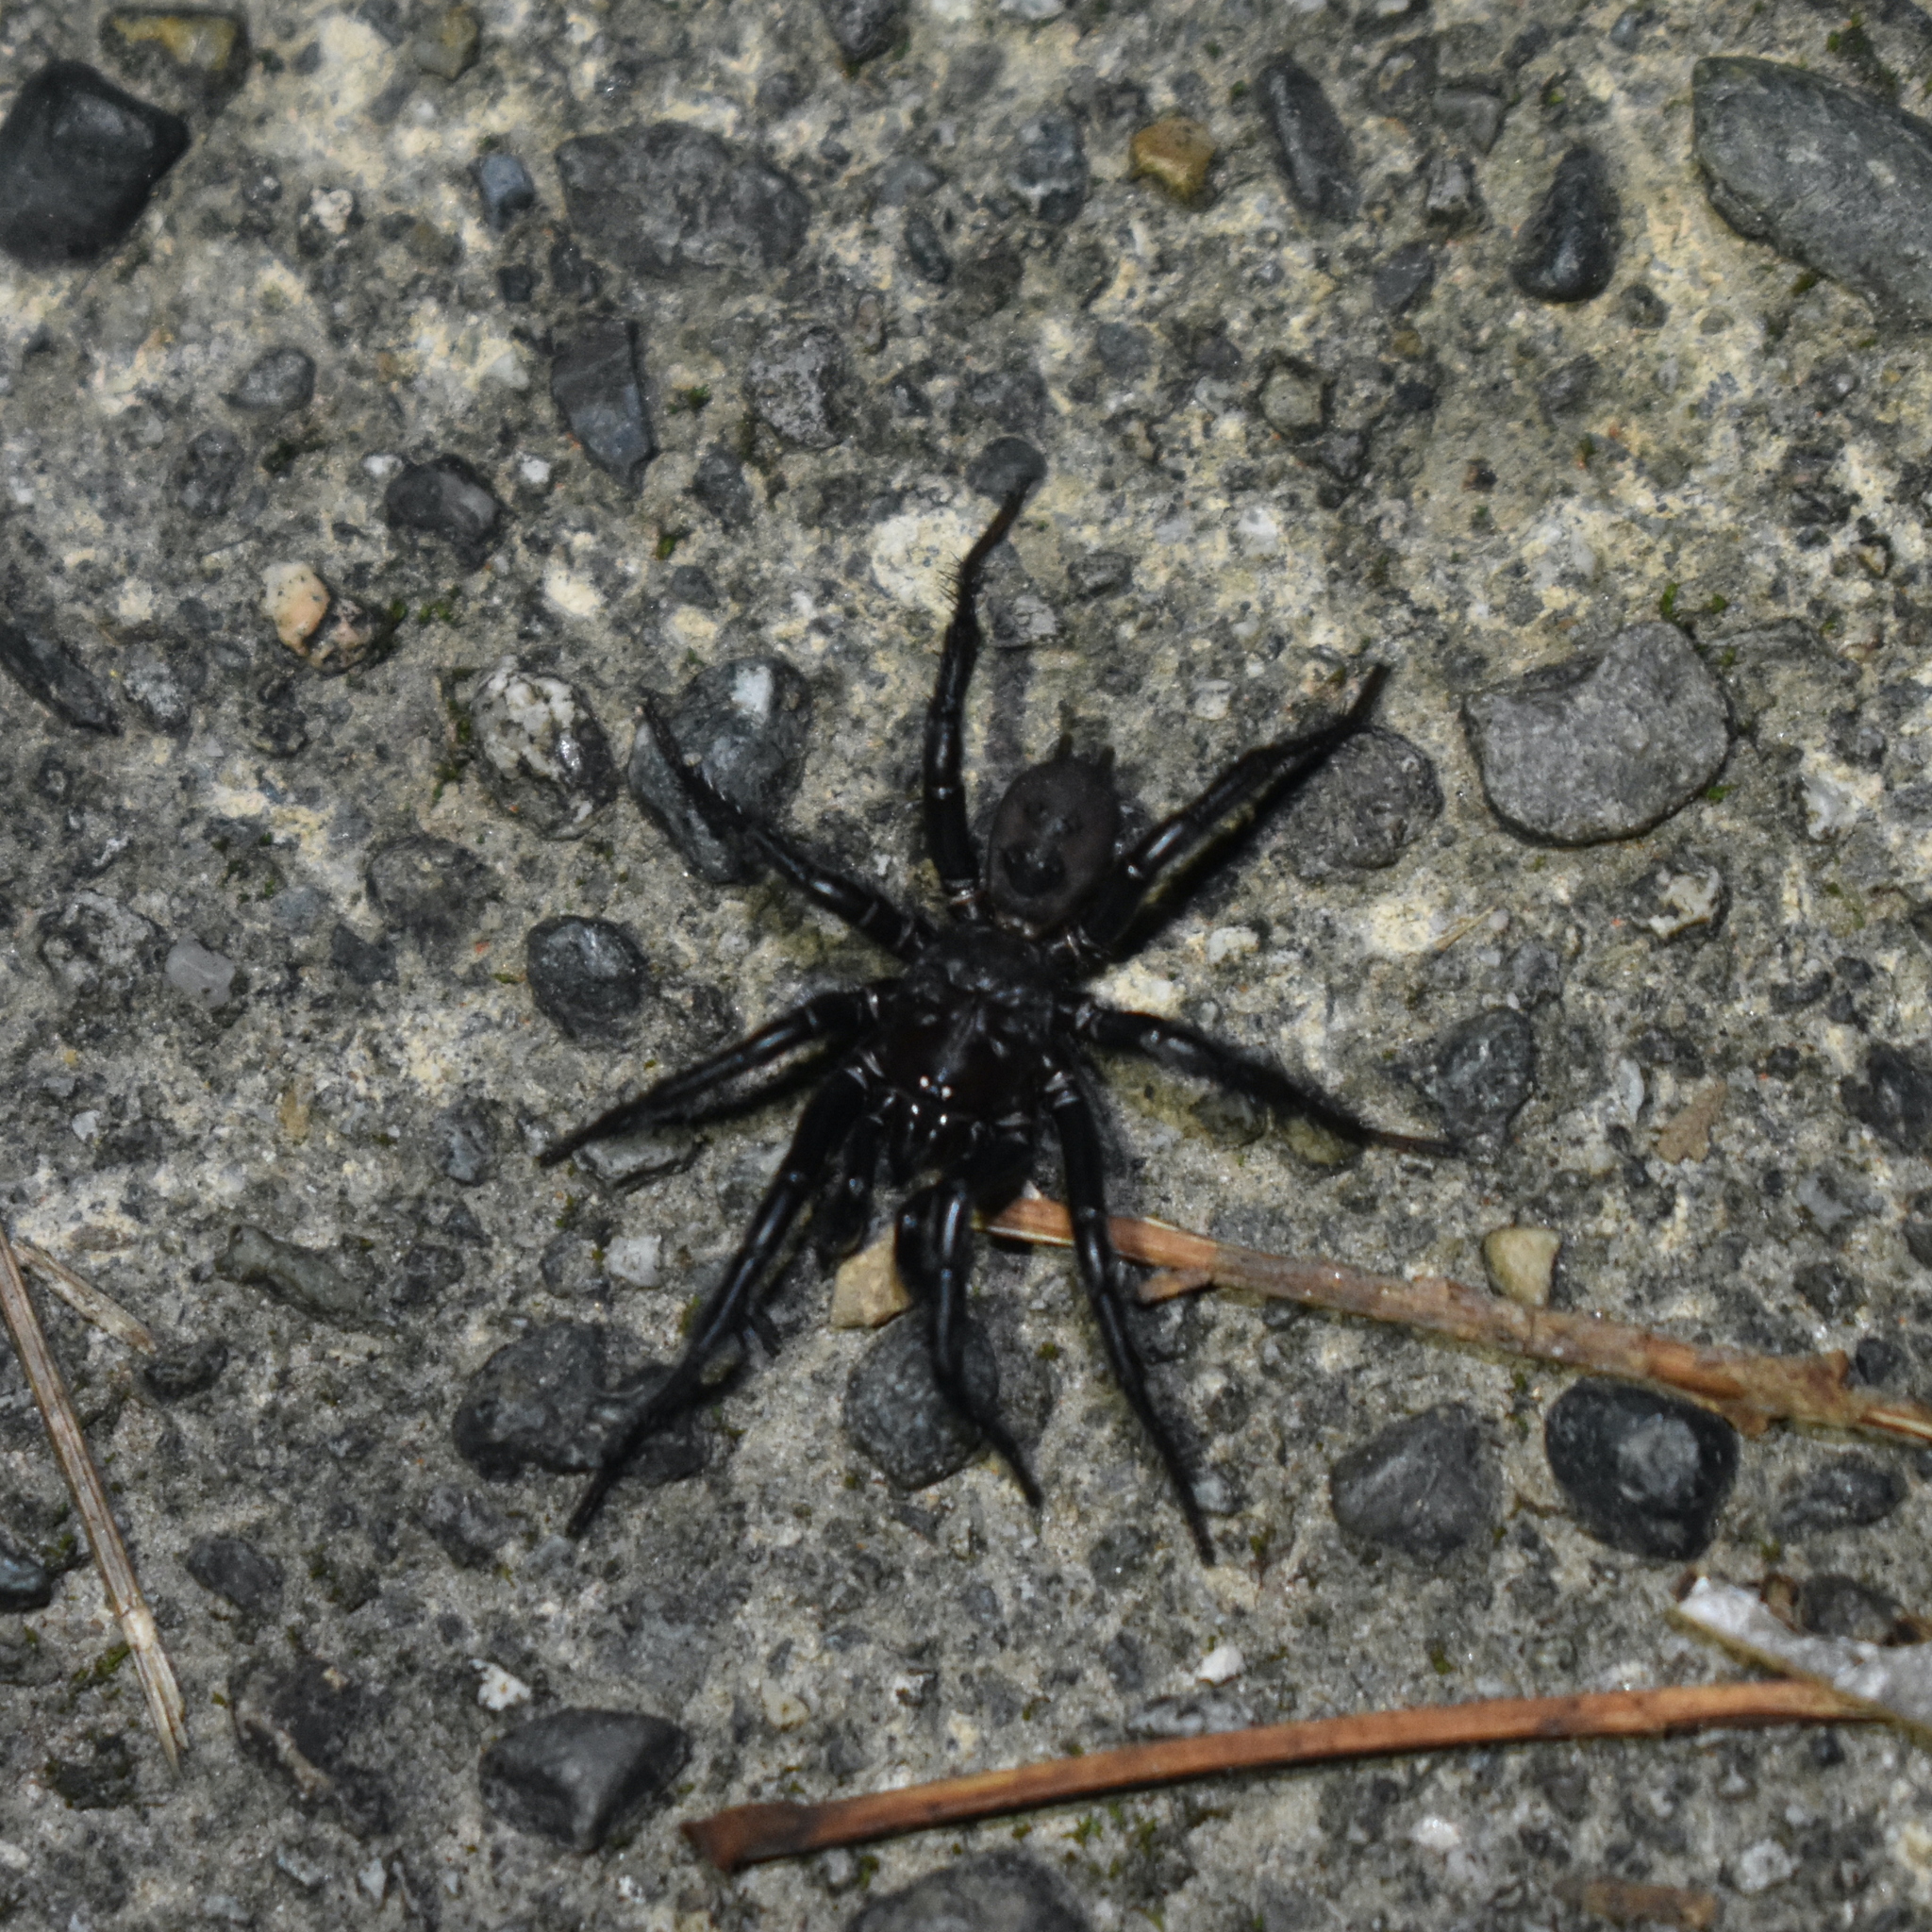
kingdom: Animalia
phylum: Arthropoda
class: Arachnida
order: Araneae
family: Antrodiaetidae
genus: Antrodiaetus
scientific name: Antrodiaetus pacificus
